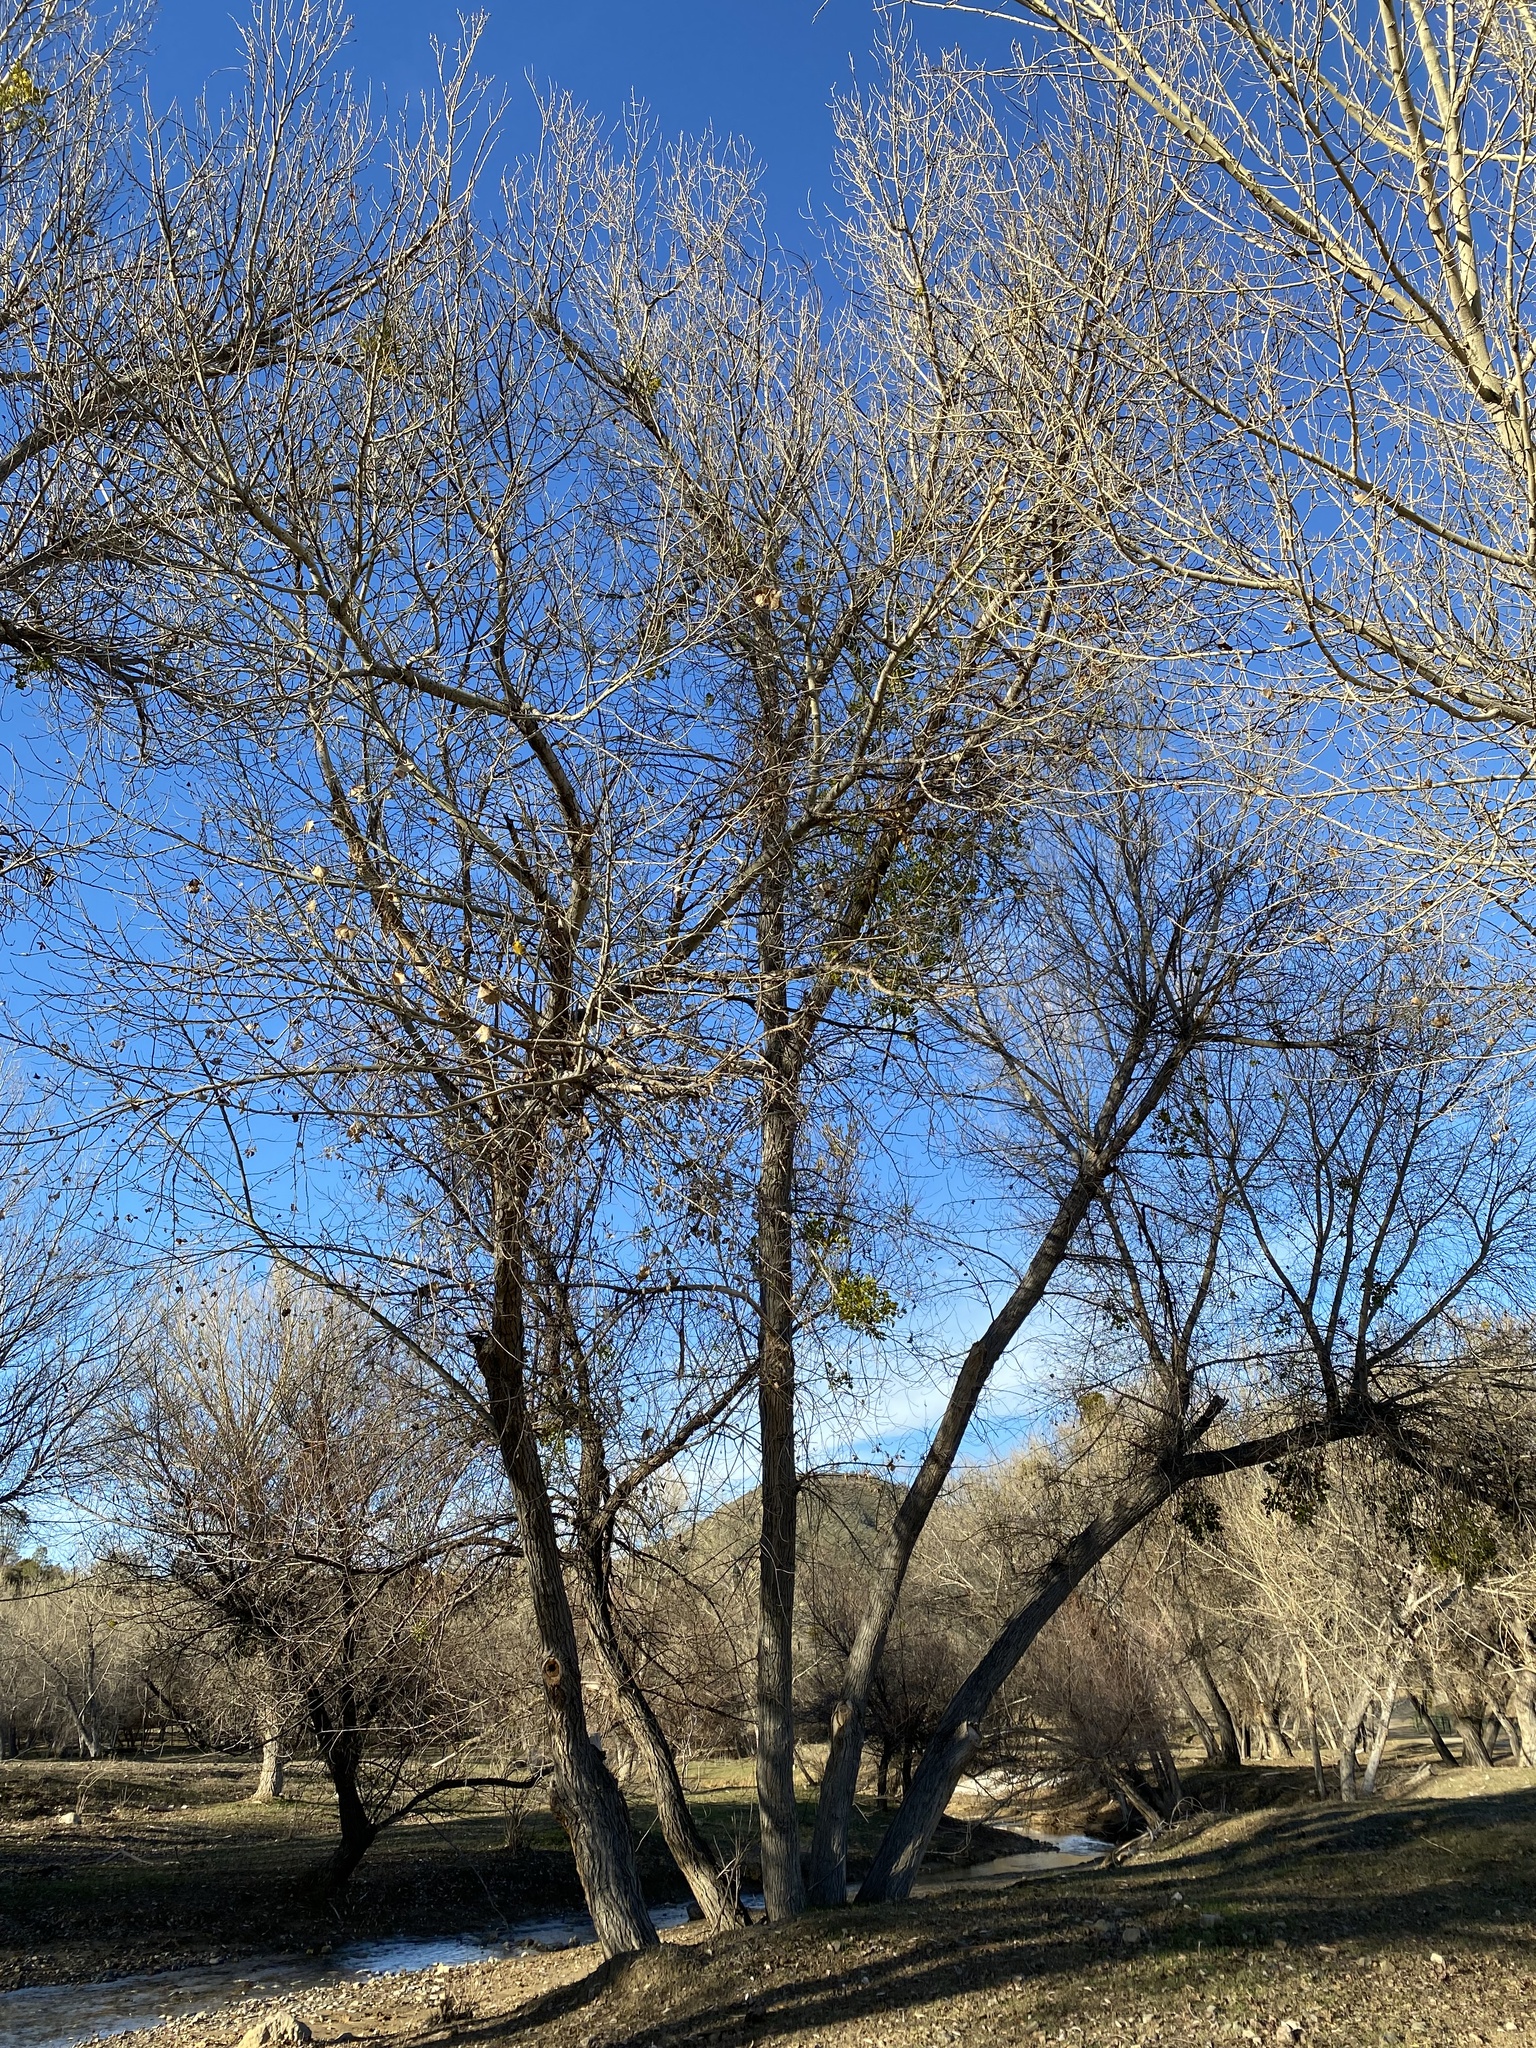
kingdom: Plantae
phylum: Tracheophyta
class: Magnoliopsida
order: Malpighiales
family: Salicaceae
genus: Populus
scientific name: Populus fremontii
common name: Fremont's cottonwood
